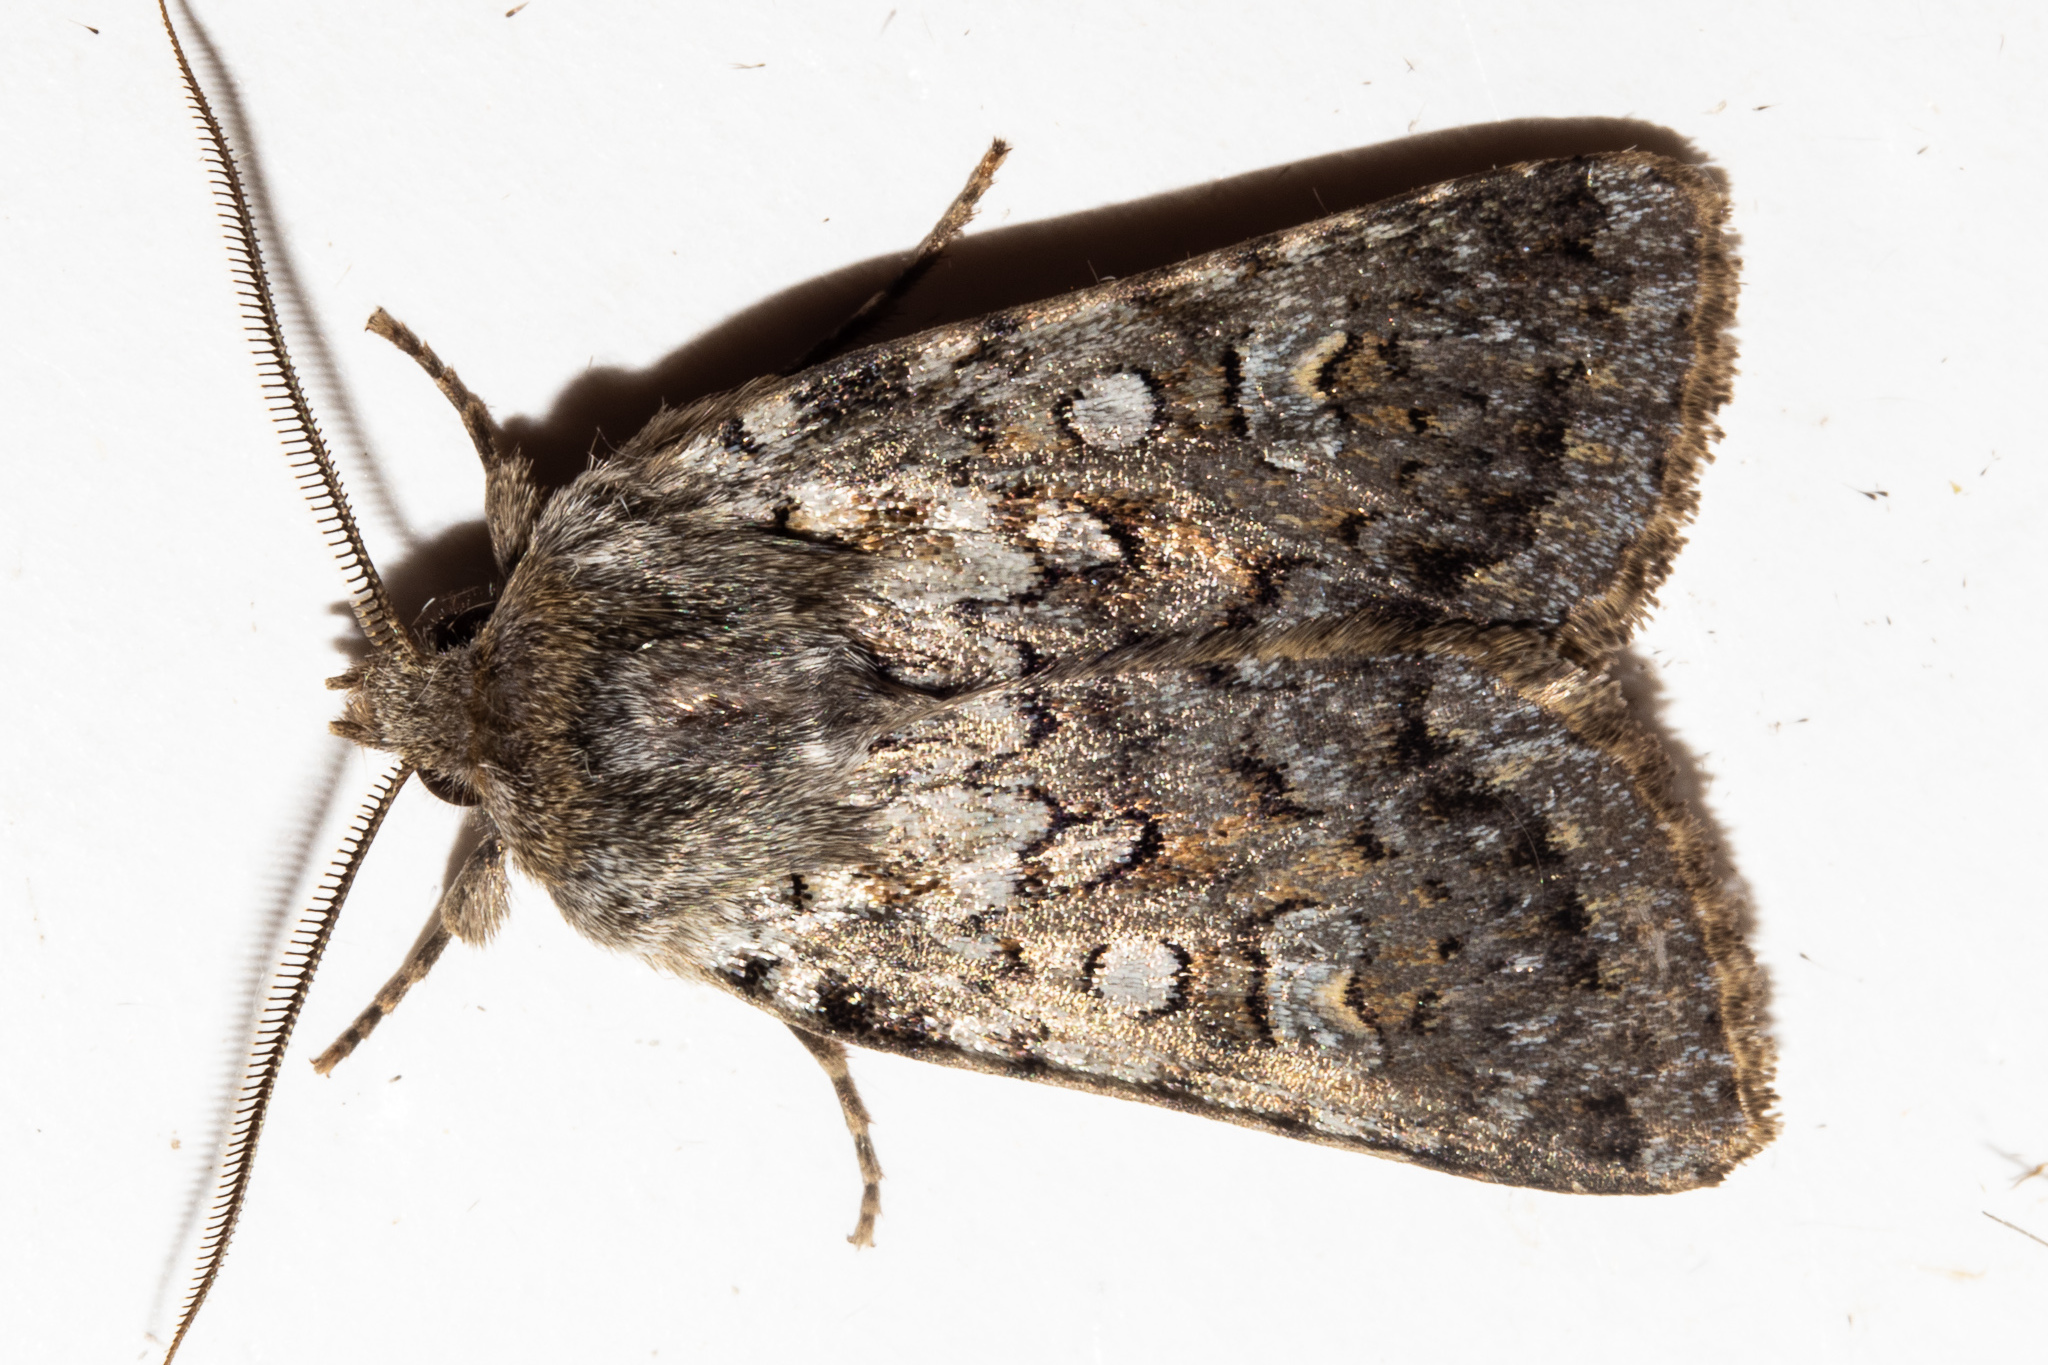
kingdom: Animalia
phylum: Arthropoda
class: Insecta
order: Lepidoptera
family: Noctuidae
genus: Ichneutica
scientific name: Ichneutica
